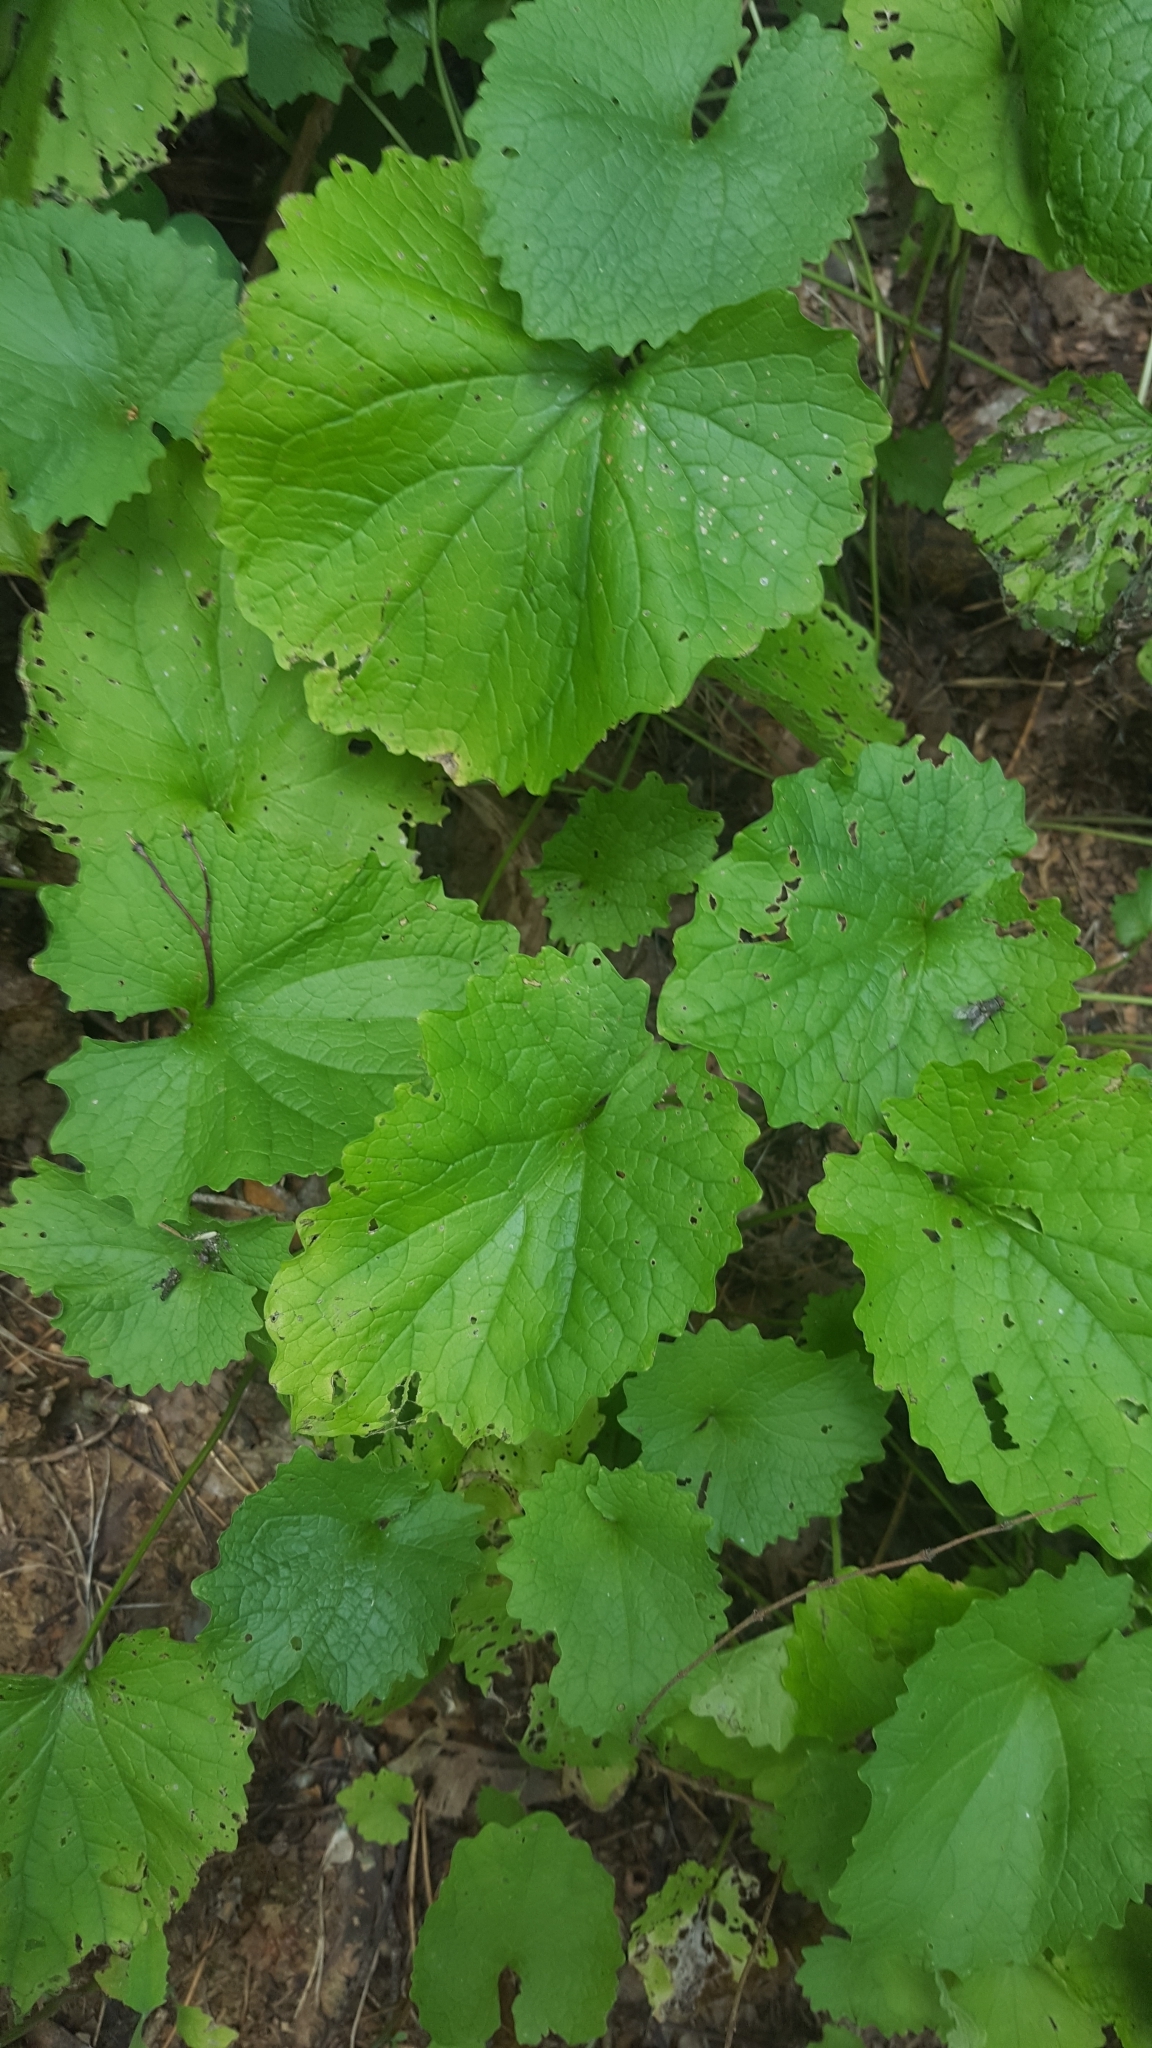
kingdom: Plantae
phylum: Tracheophyta
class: Magnoliopsida
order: Brassicales
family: Brassicaceae
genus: Alliaria
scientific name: Alliaria petiolata
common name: Garlic mustard
